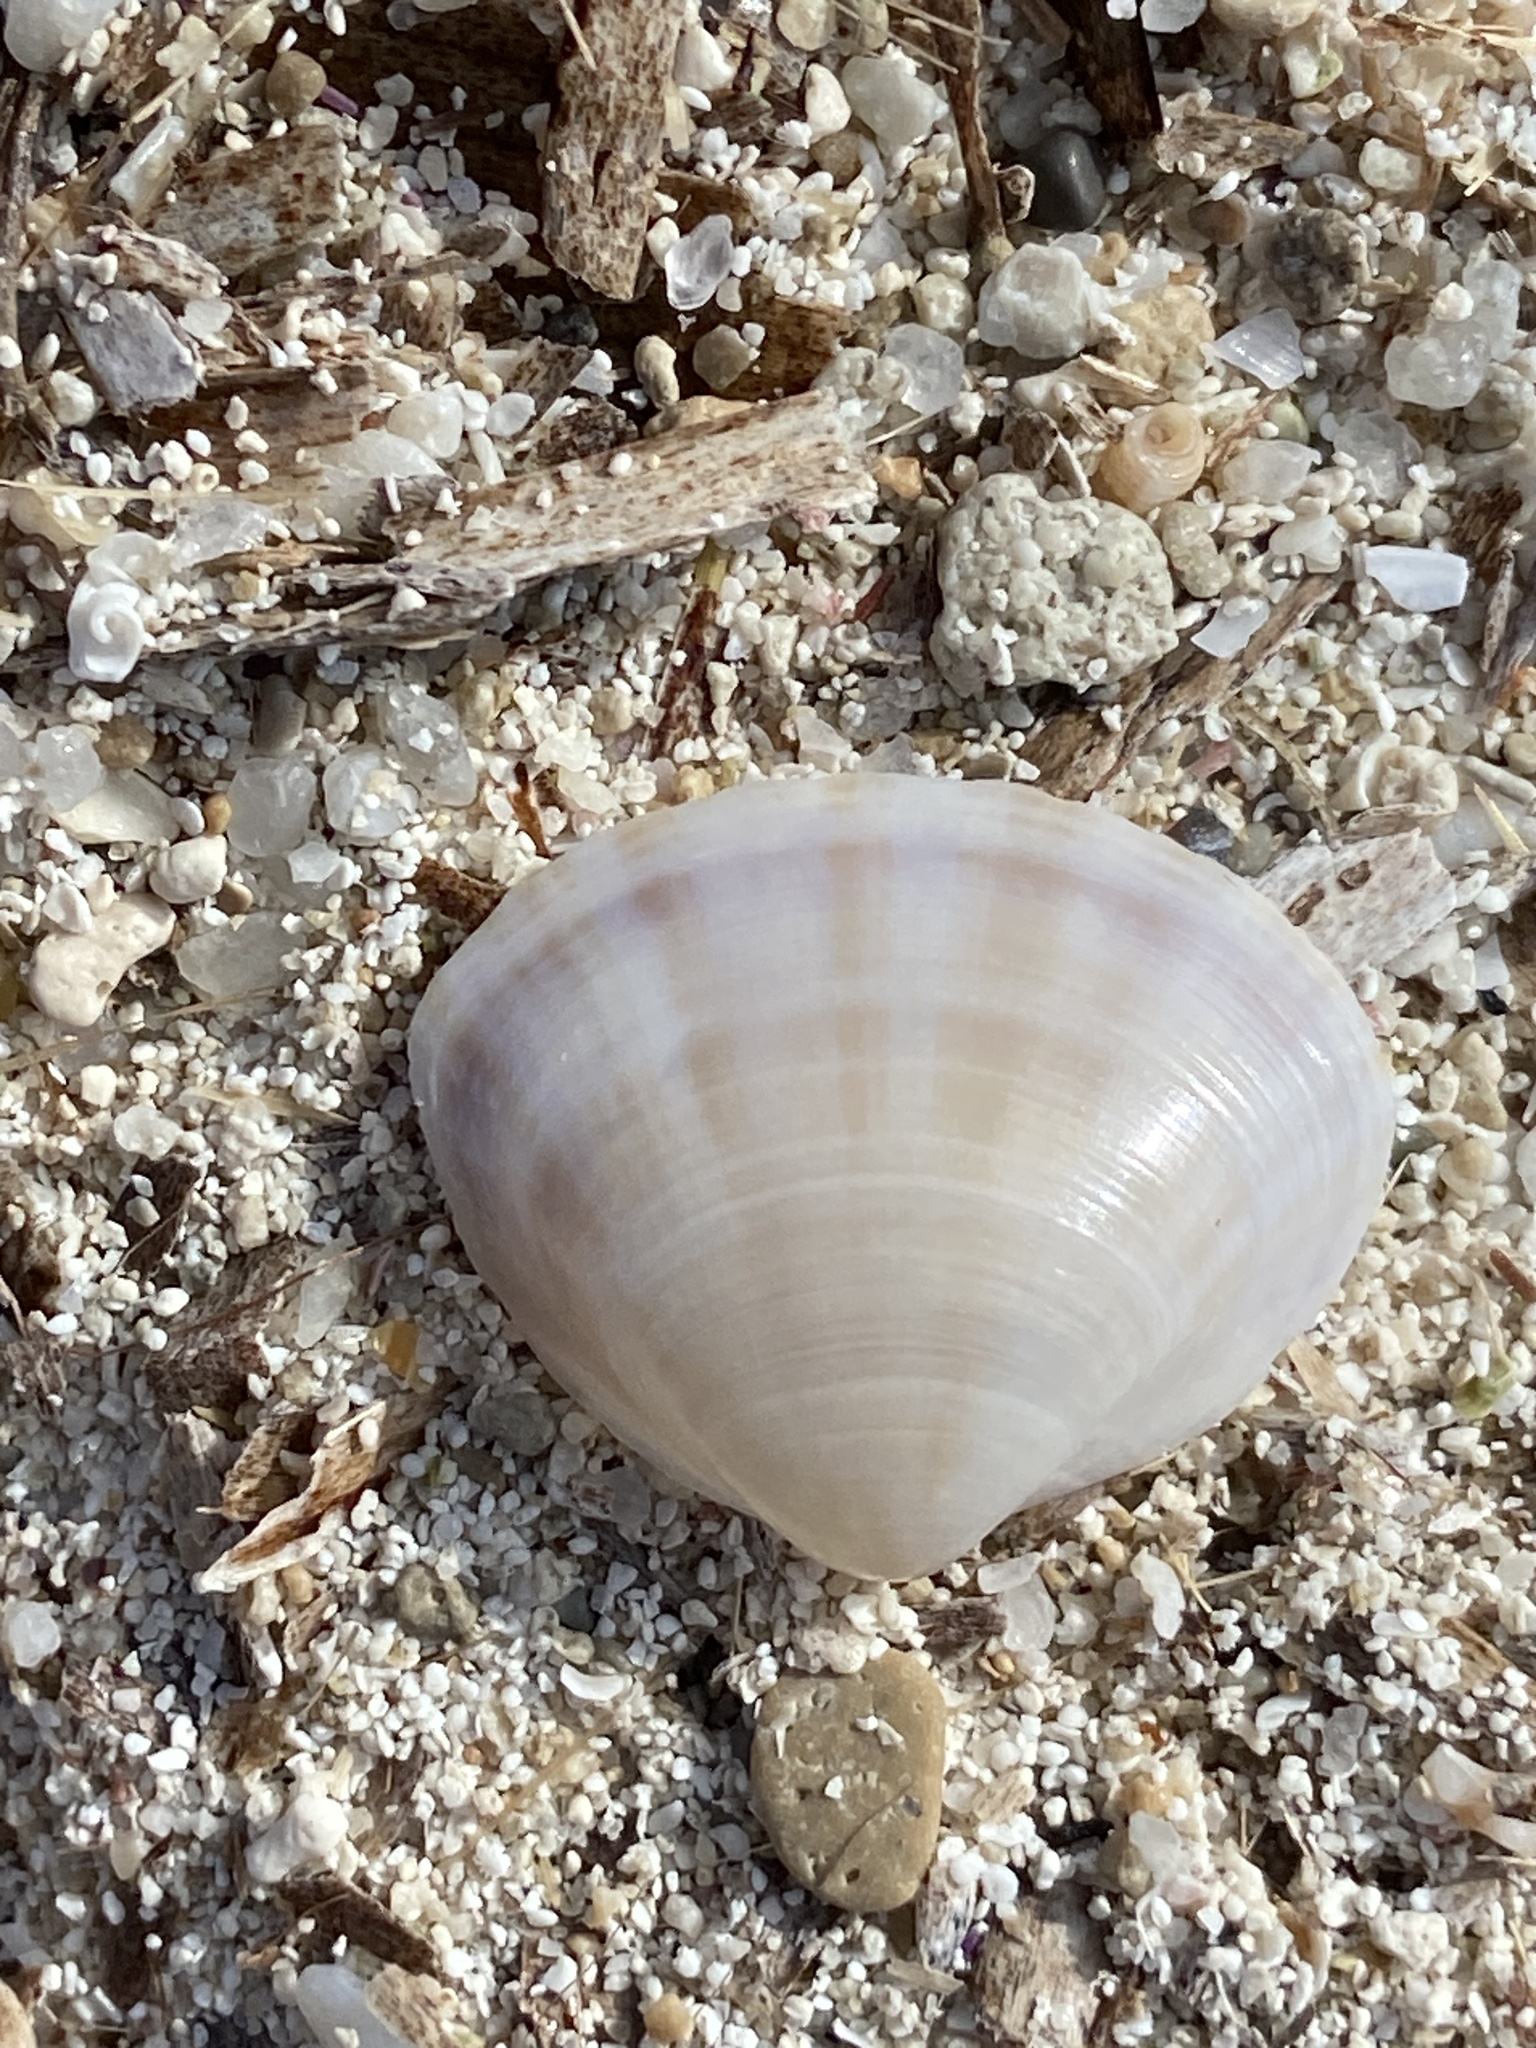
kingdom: Animalia
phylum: Mollusca
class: Bivalvia
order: Venerida
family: Mactridae
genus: Mactra
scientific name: Mactra stultorum
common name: Rayed trough shell
